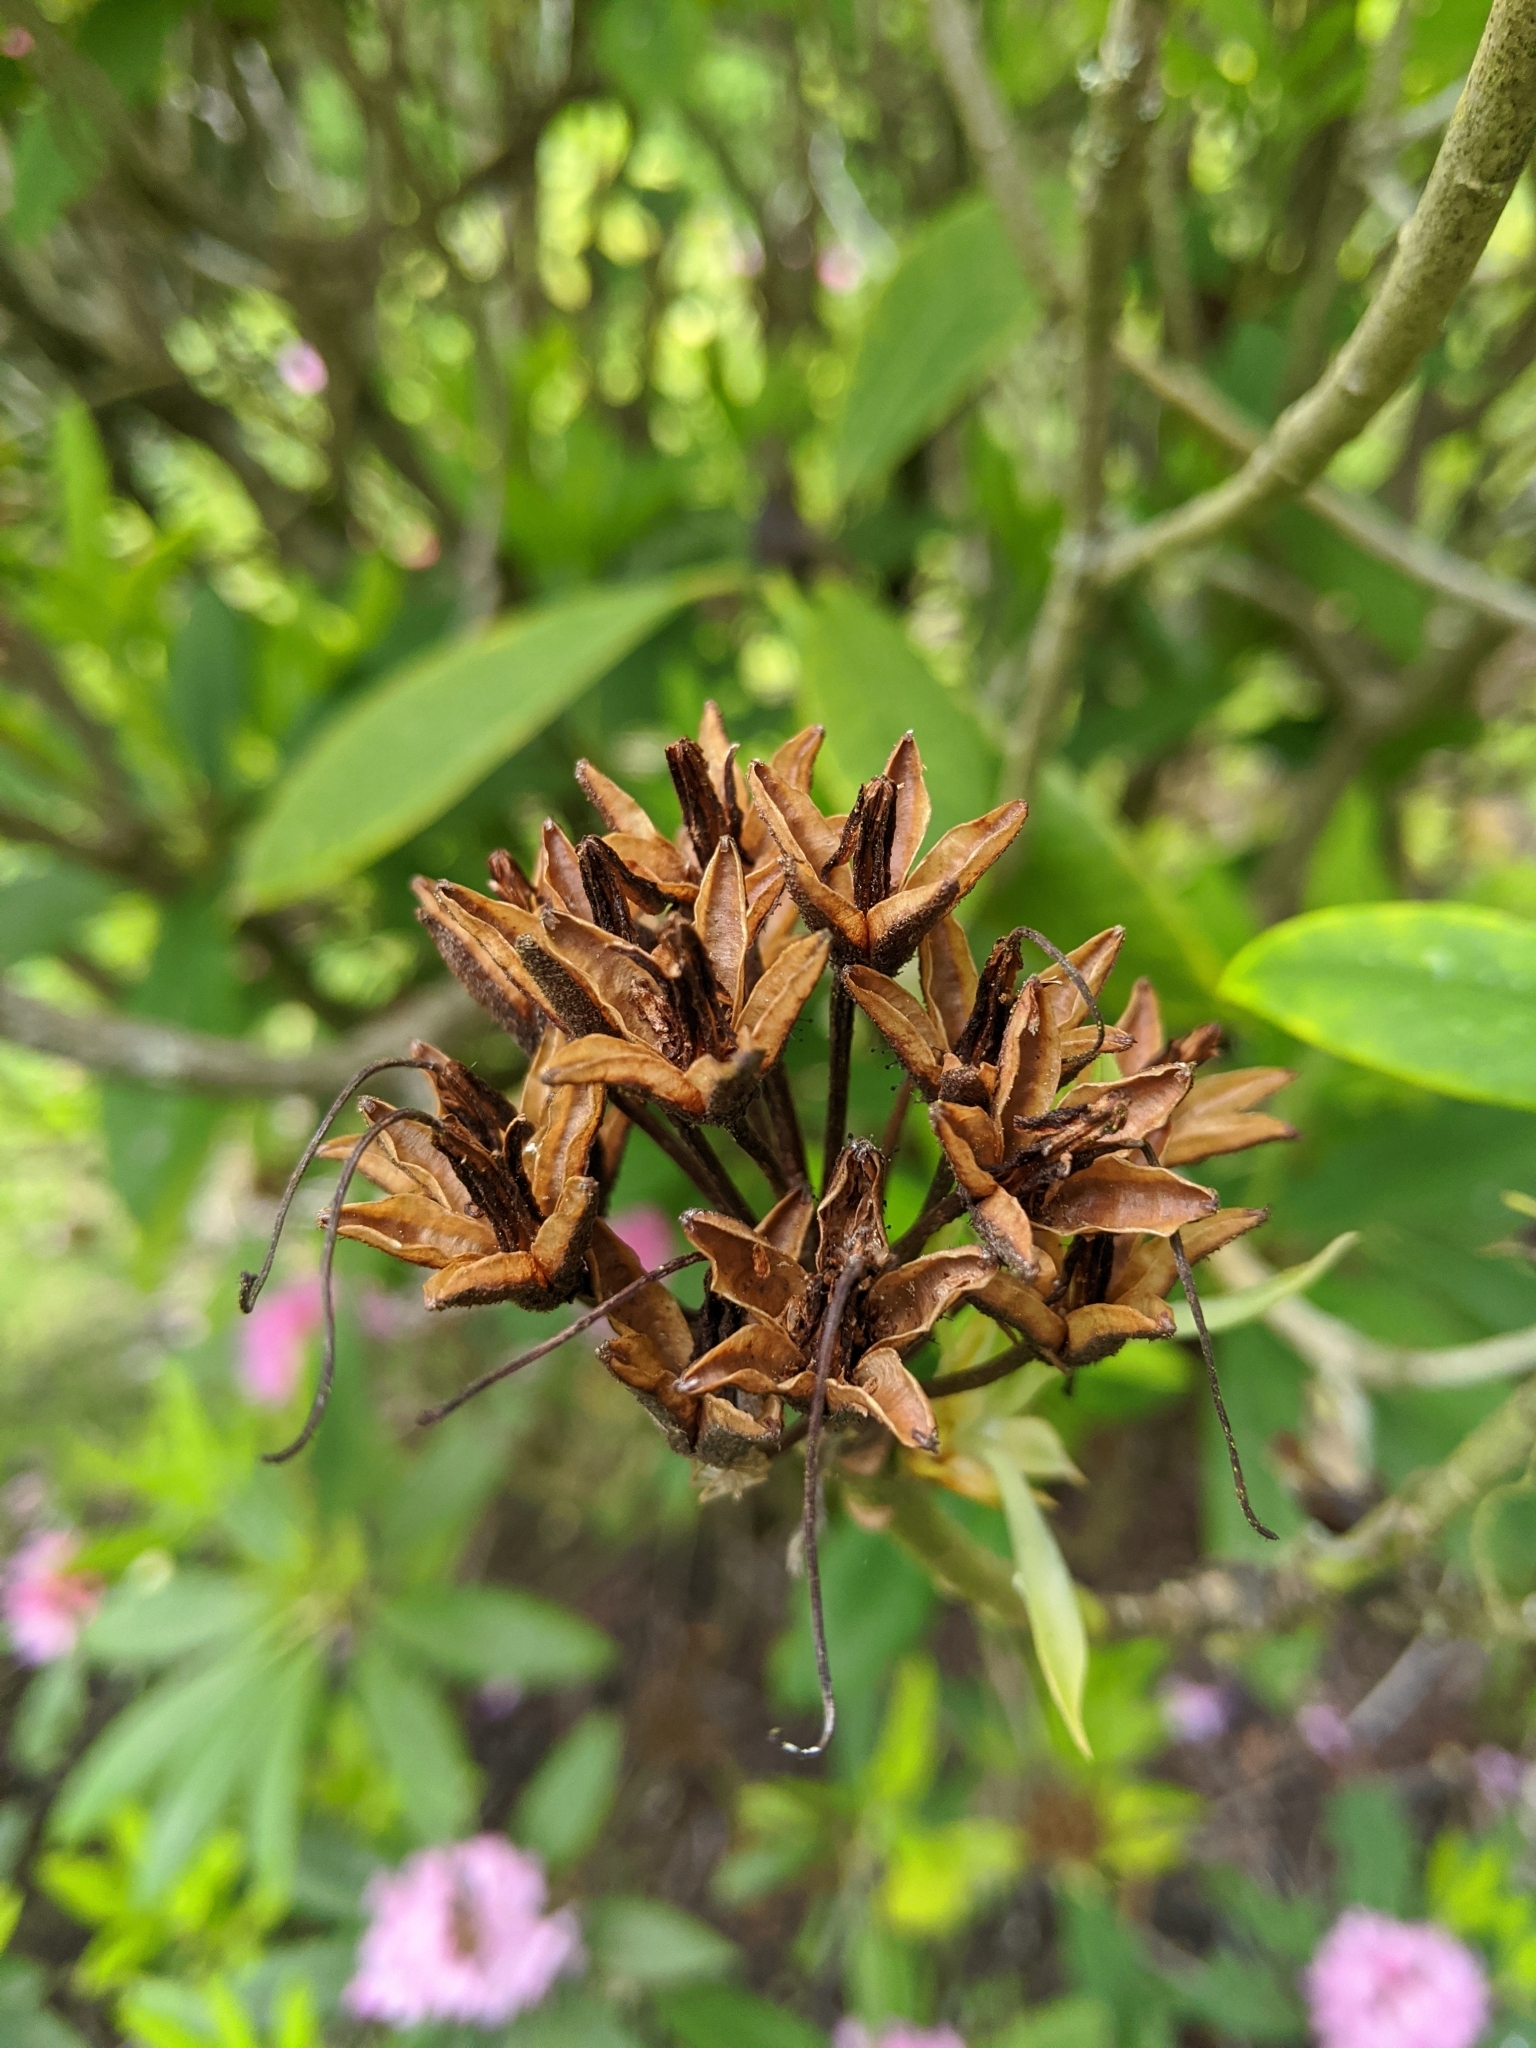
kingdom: Plantae
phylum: Tracheophyta
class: Magnoliopsida
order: Ericales
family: Ericaceae
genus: Rhododendron
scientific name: Rhododendron macrophyllum
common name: California rose bay
